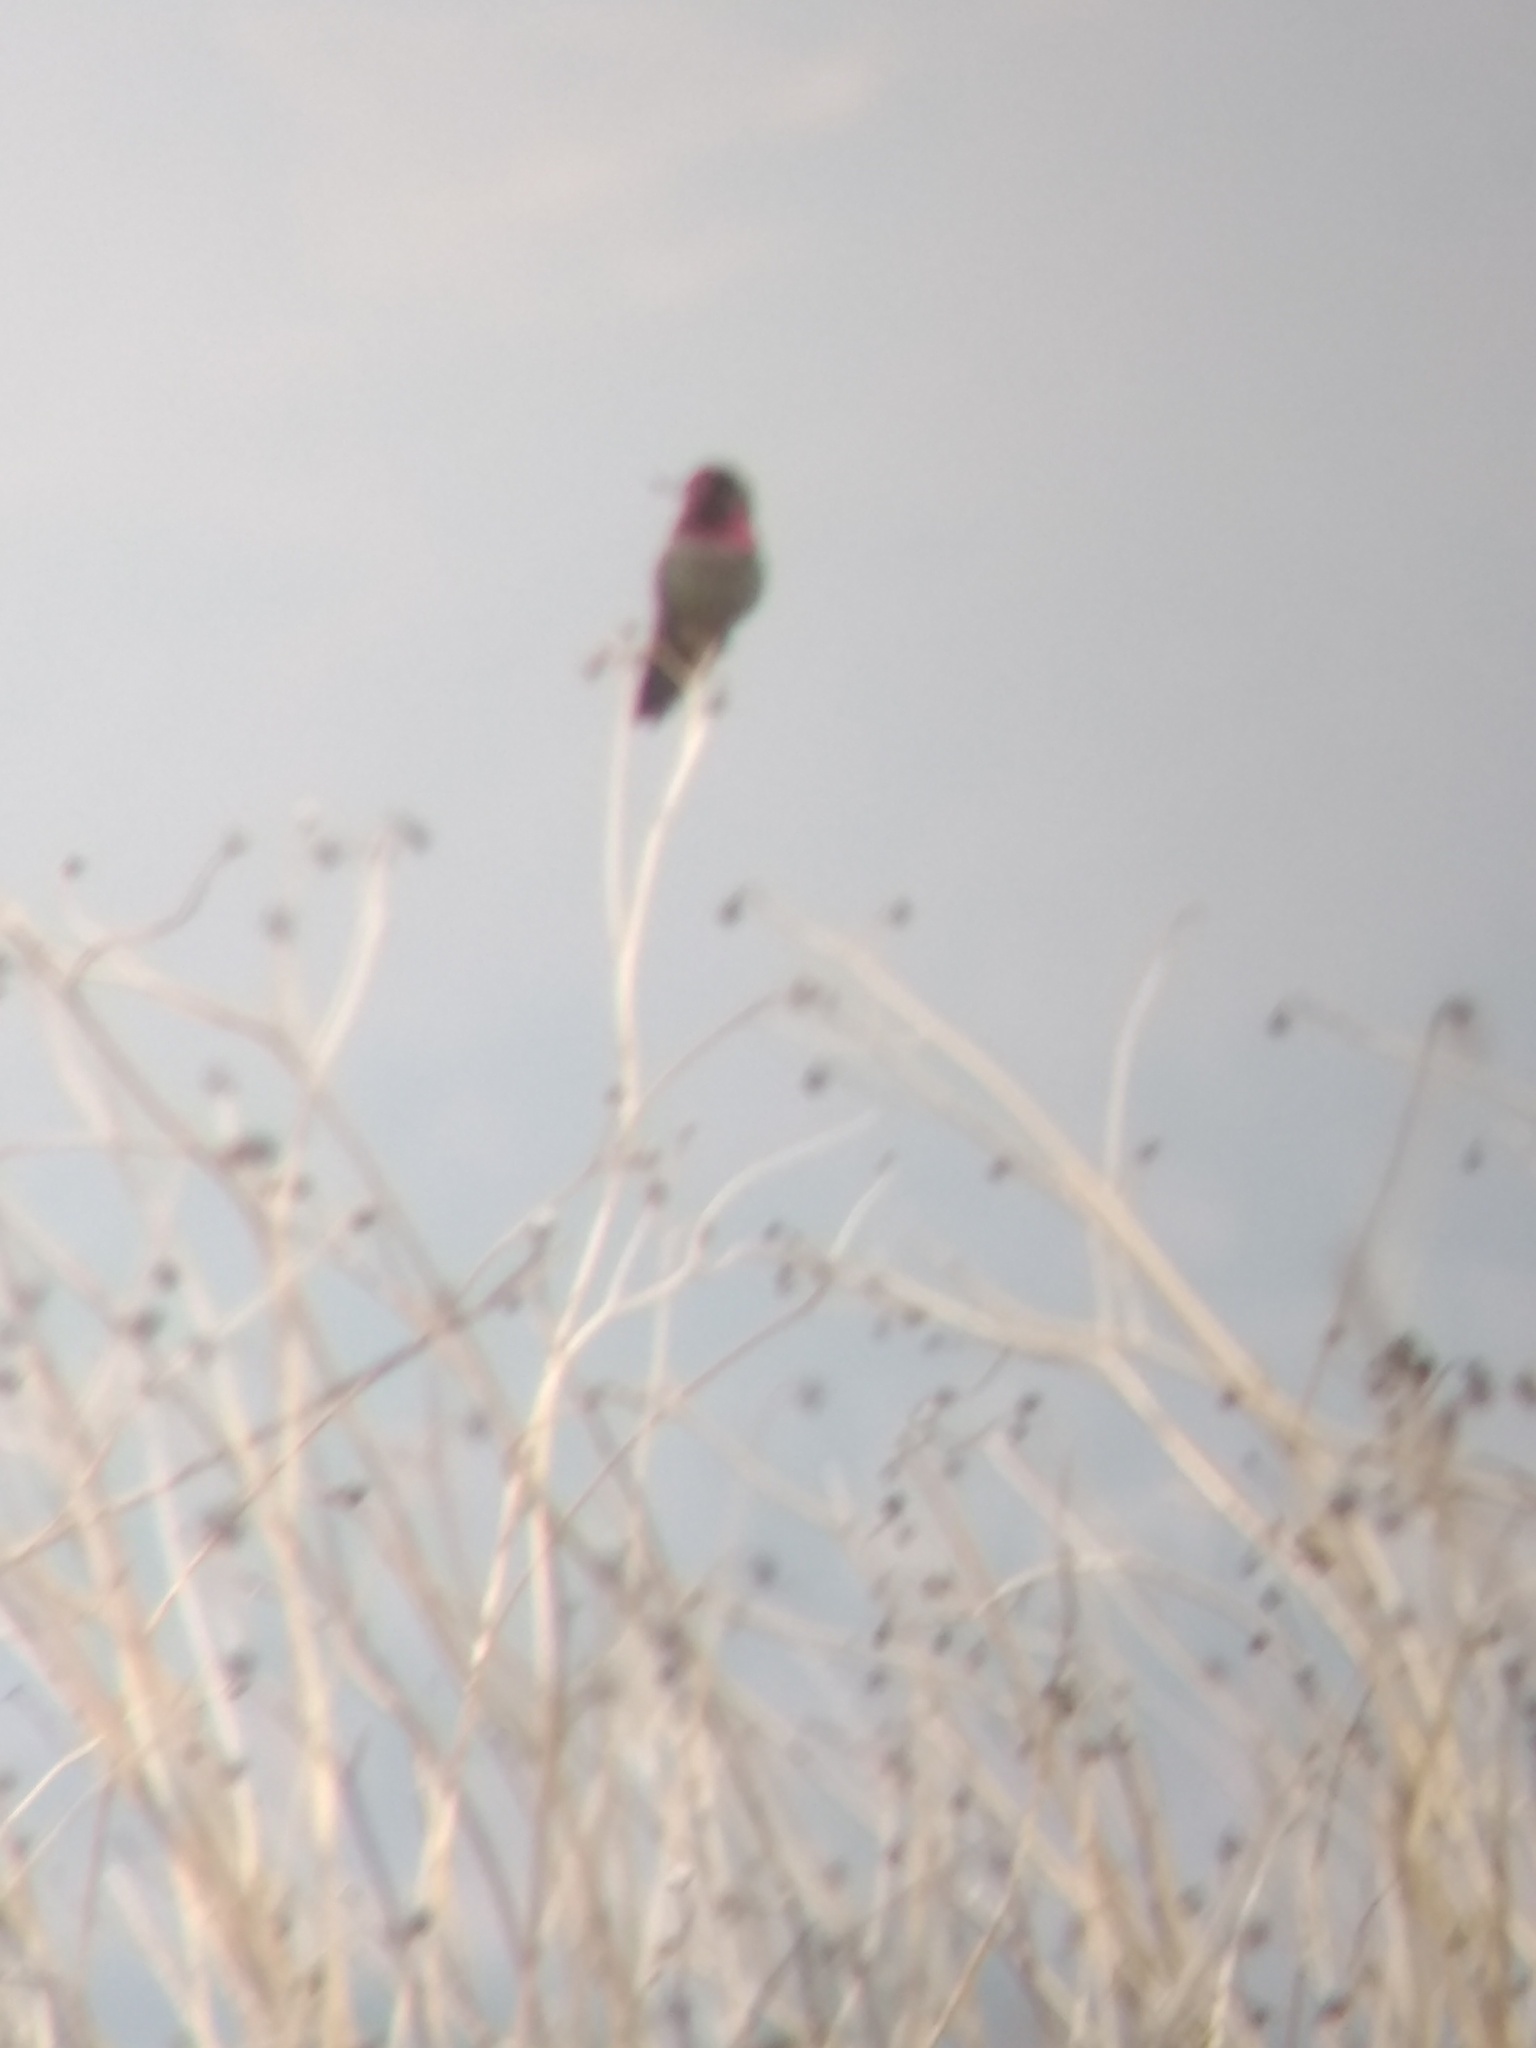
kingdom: Animalia
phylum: Chordata
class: Aves
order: Apodiformes
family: Trochilidae
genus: Calypte
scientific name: Calypte anna
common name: Anna's hummingbird
